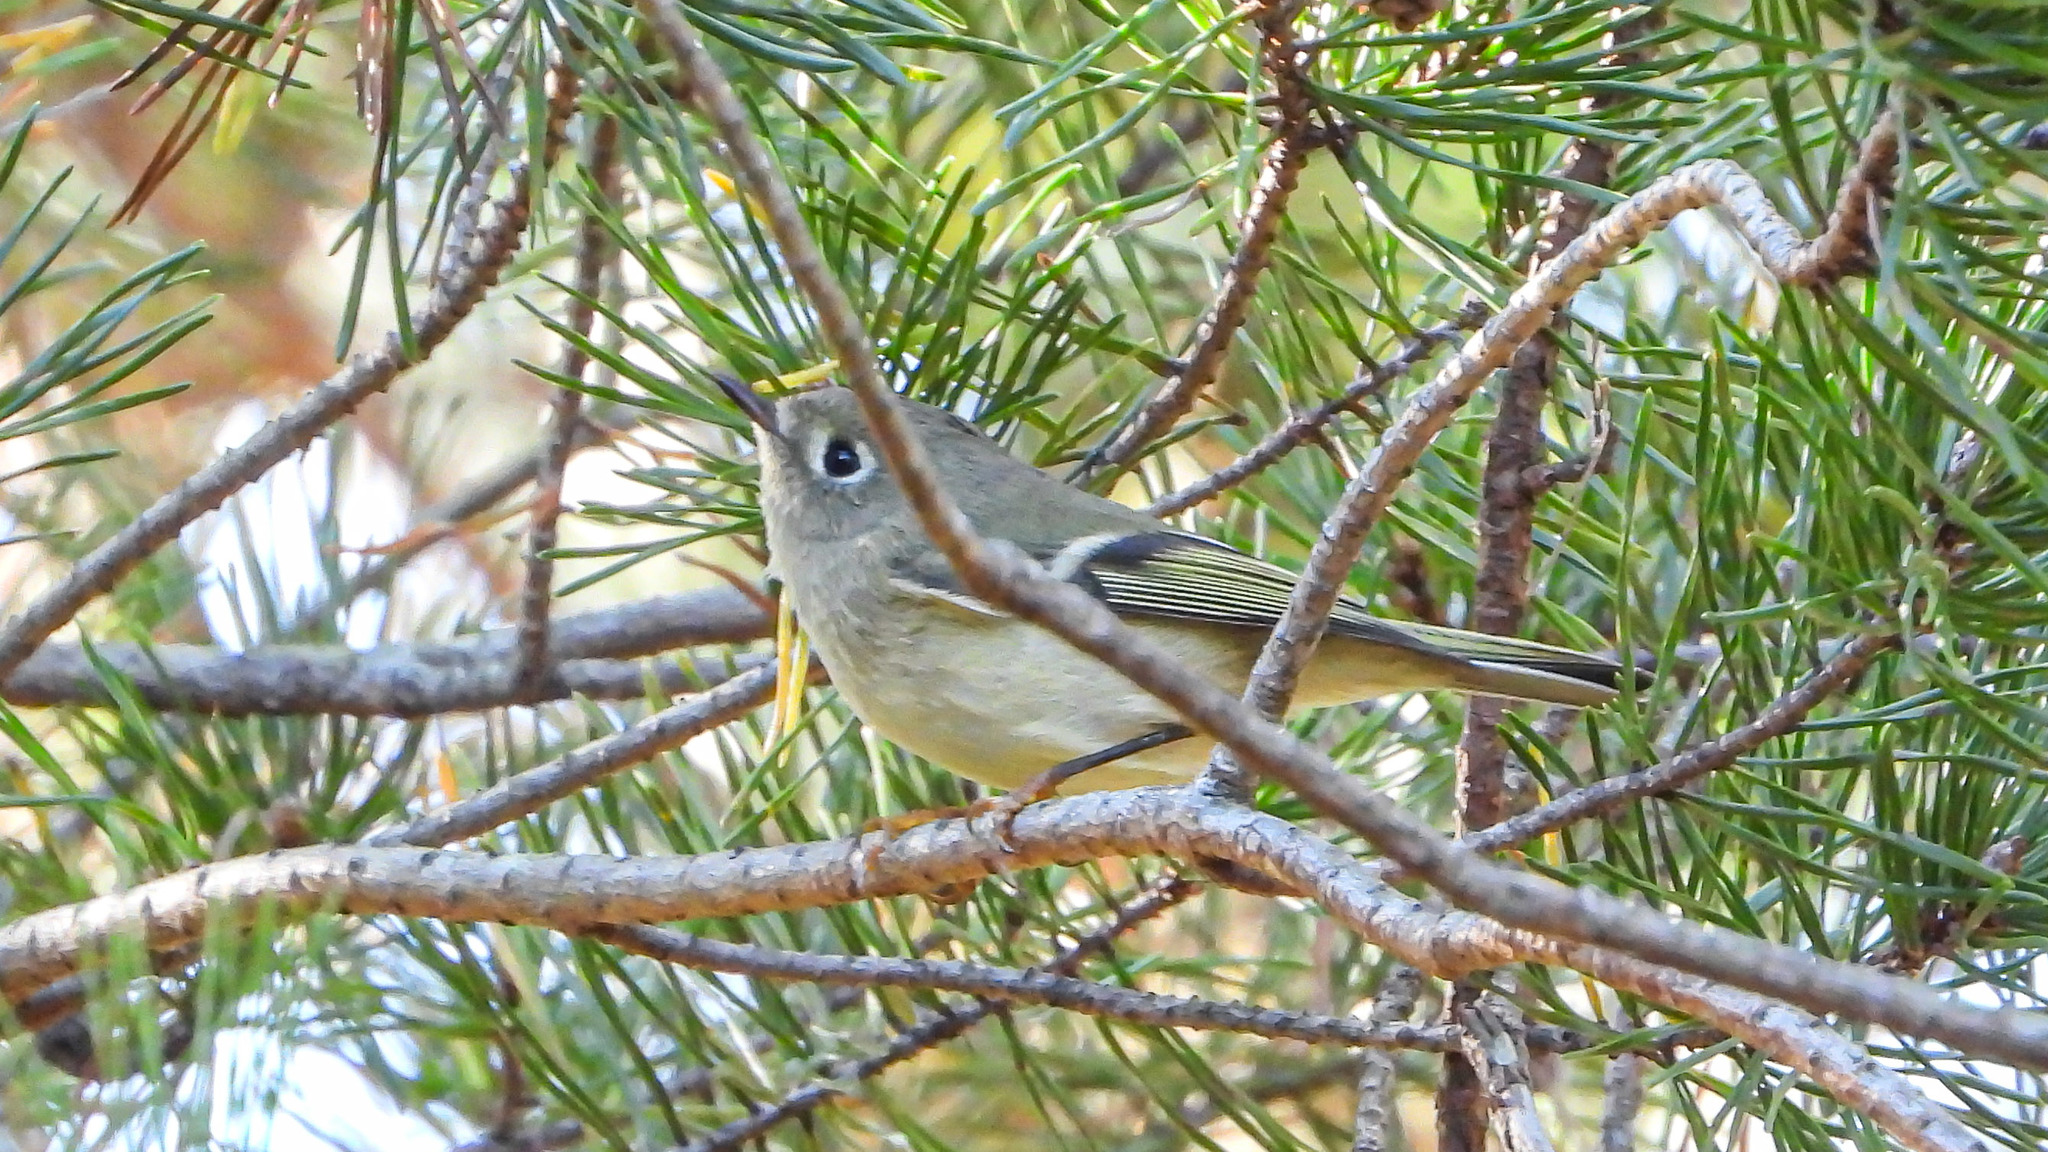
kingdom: Animalia
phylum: Chordata
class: Aves
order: Passeriformes
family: Regulidae
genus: Regulus
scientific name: Regulus calendula
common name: Ruby-crowned kinglet
